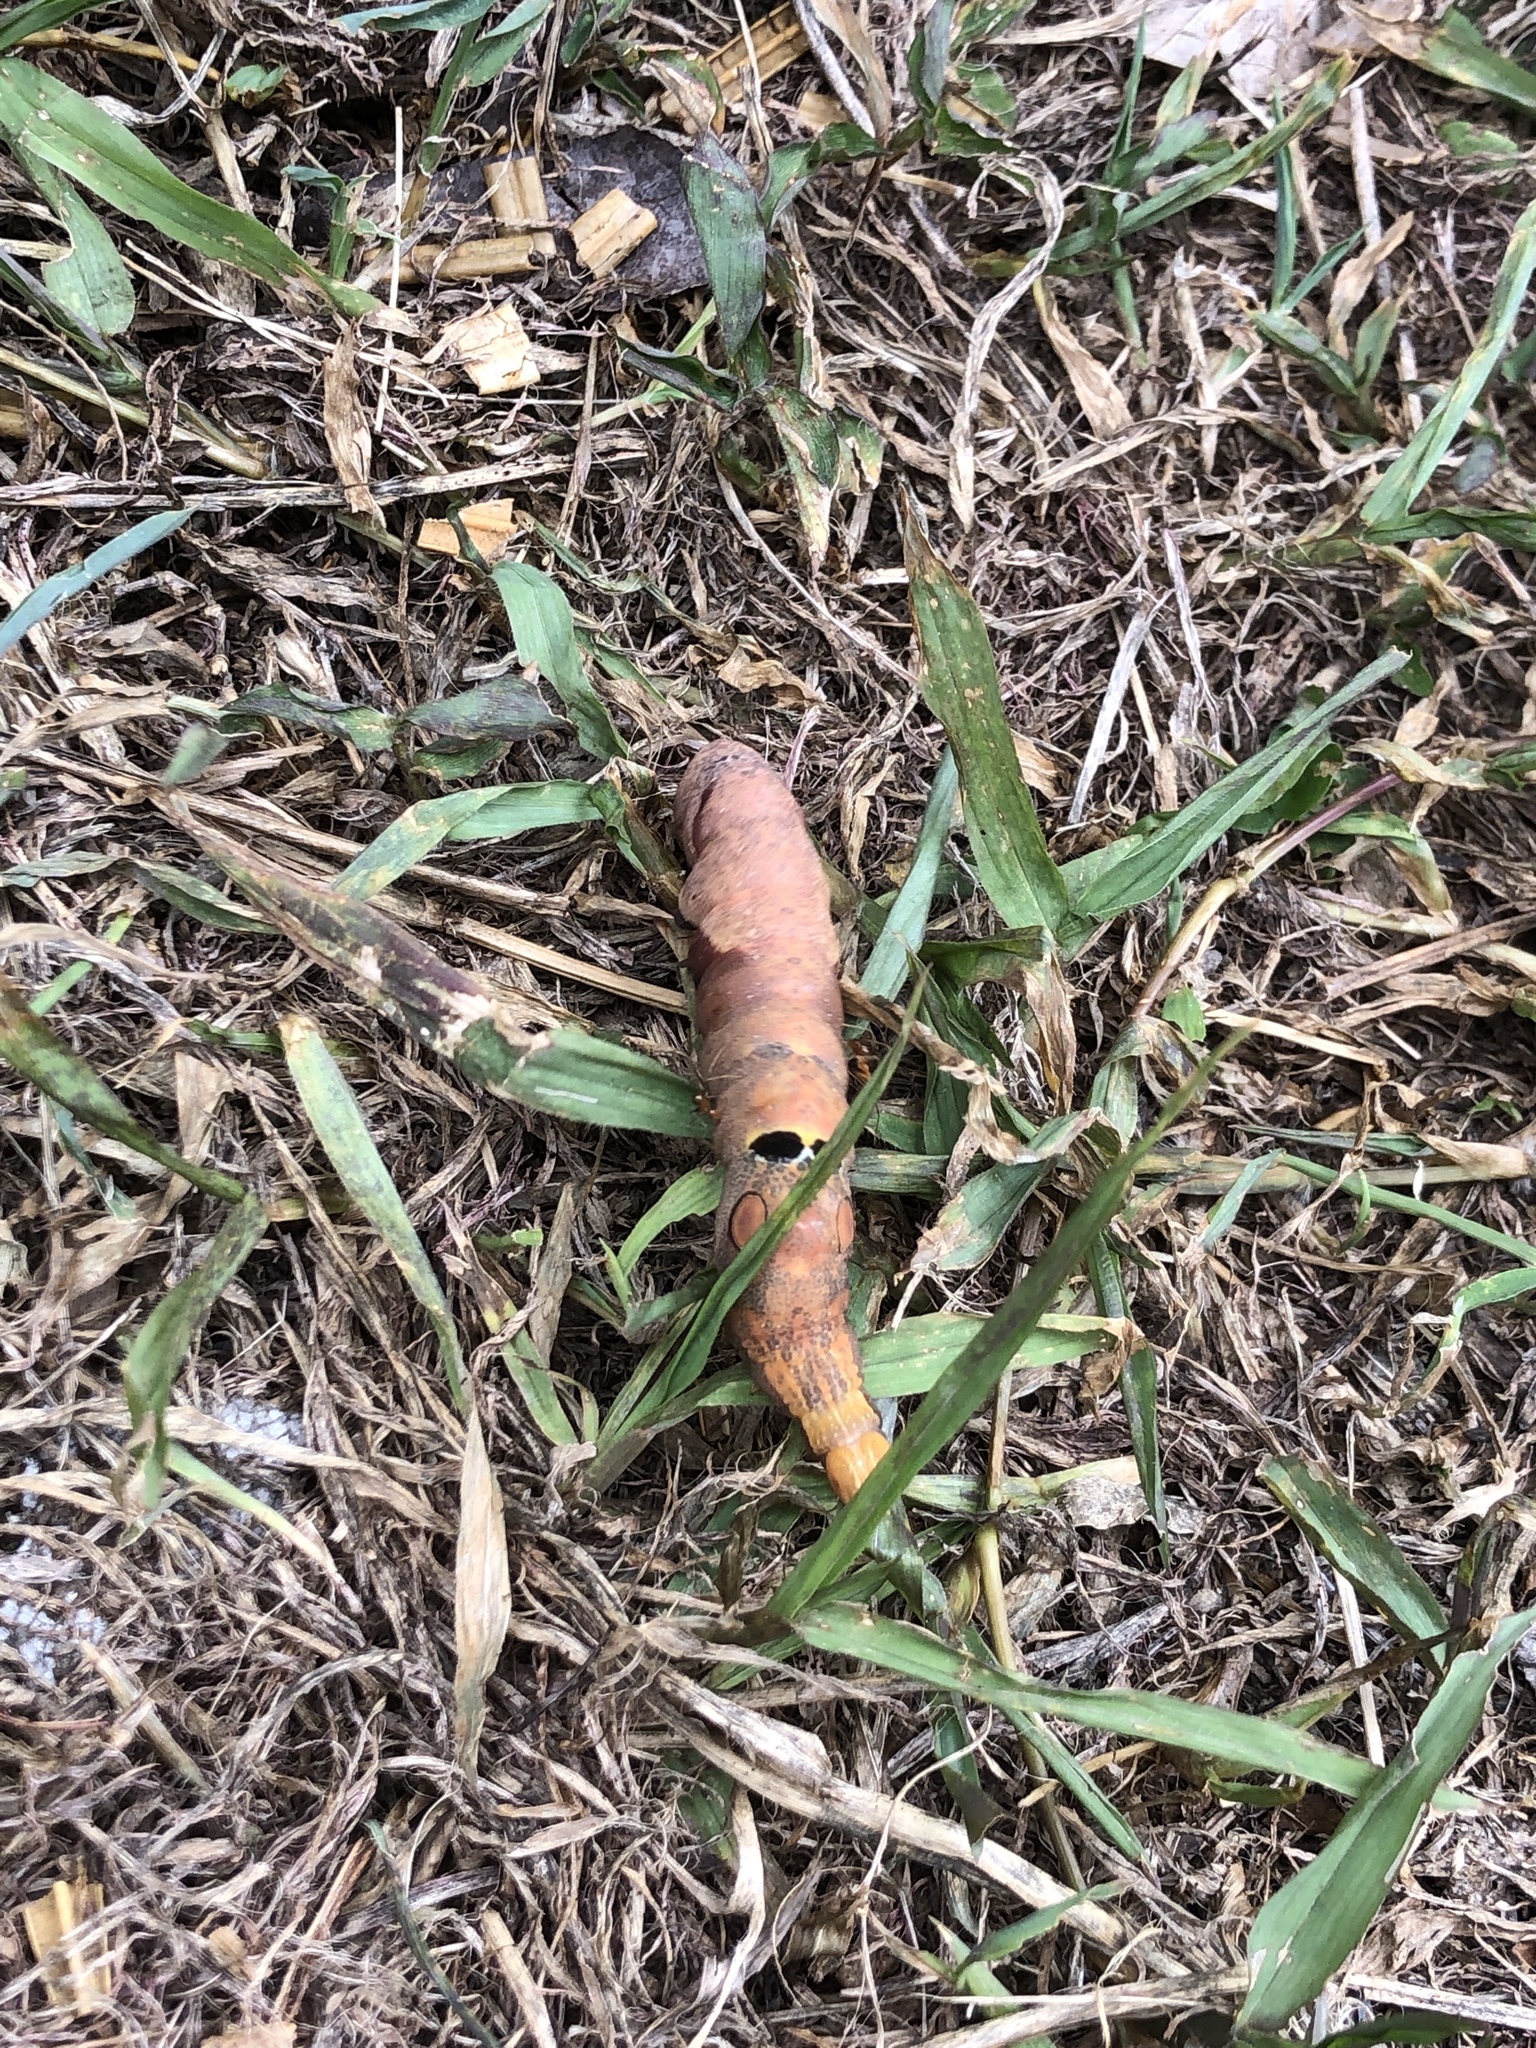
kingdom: Animalia
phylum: Arthropoda
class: Insecta
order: Lepidoptera
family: Erebidae
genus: Erebus
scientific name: Erebus ephesperis
